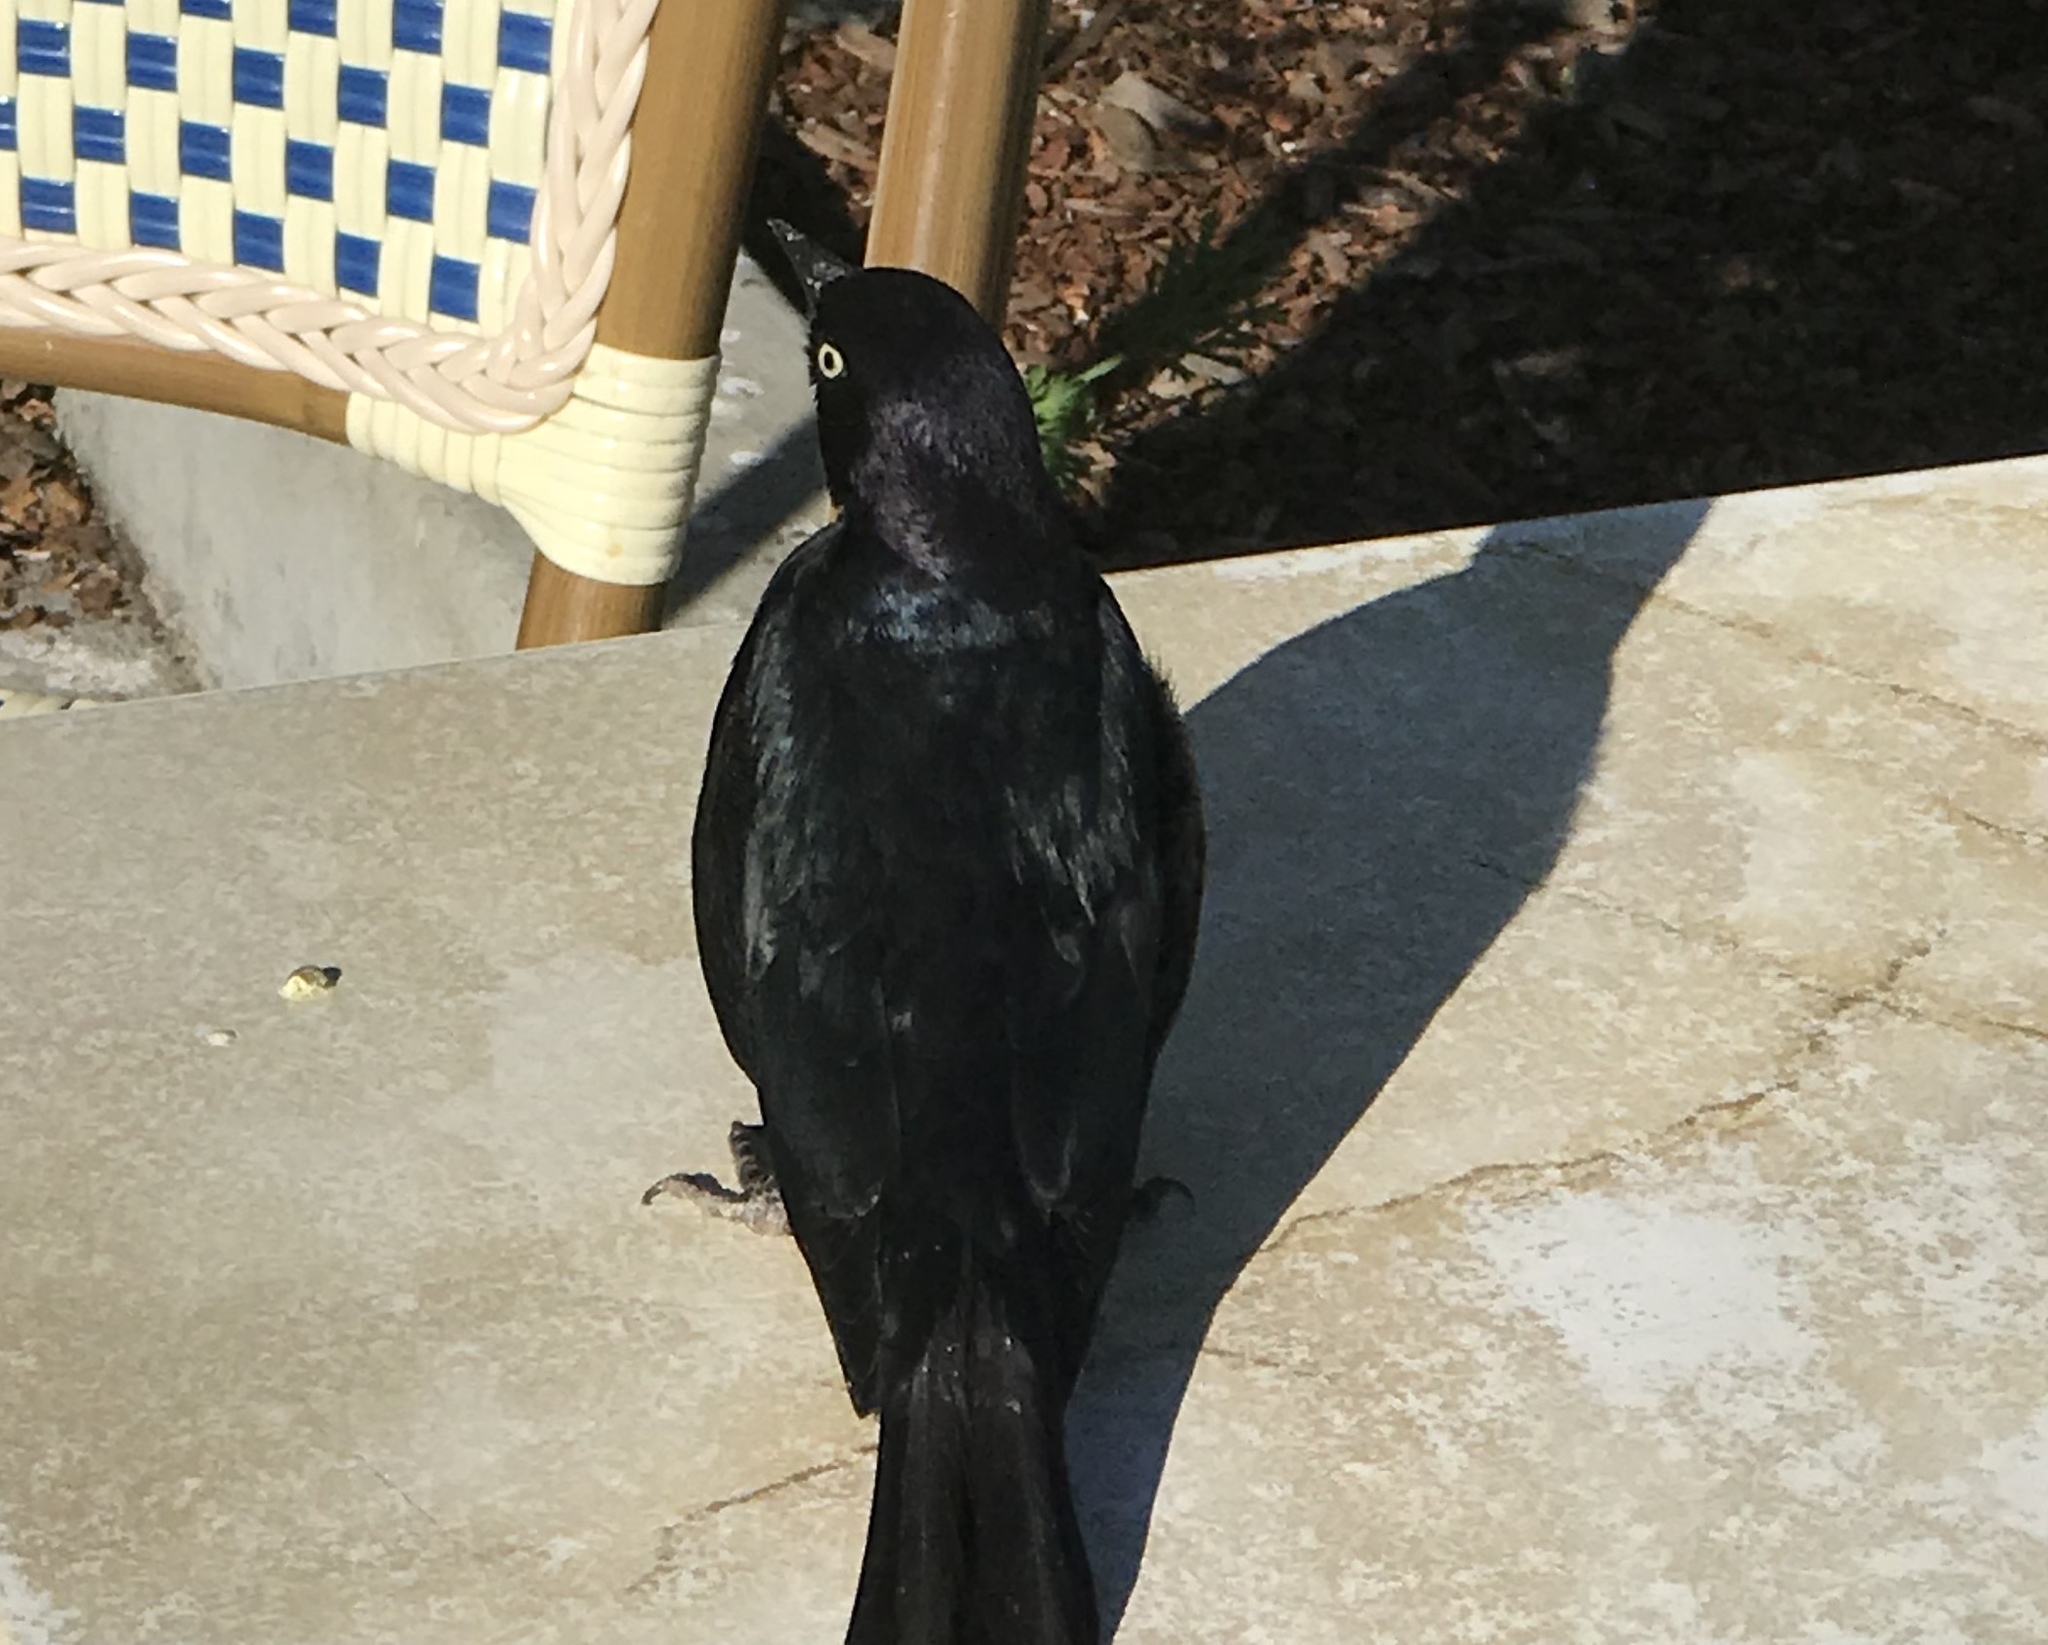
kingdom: Animalia
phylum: Chordata
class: Aves
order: Passeriformes
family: Icteridae
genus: Euphagus
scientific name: Euphagus cyanocephalus
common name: Brewer's blackbird
